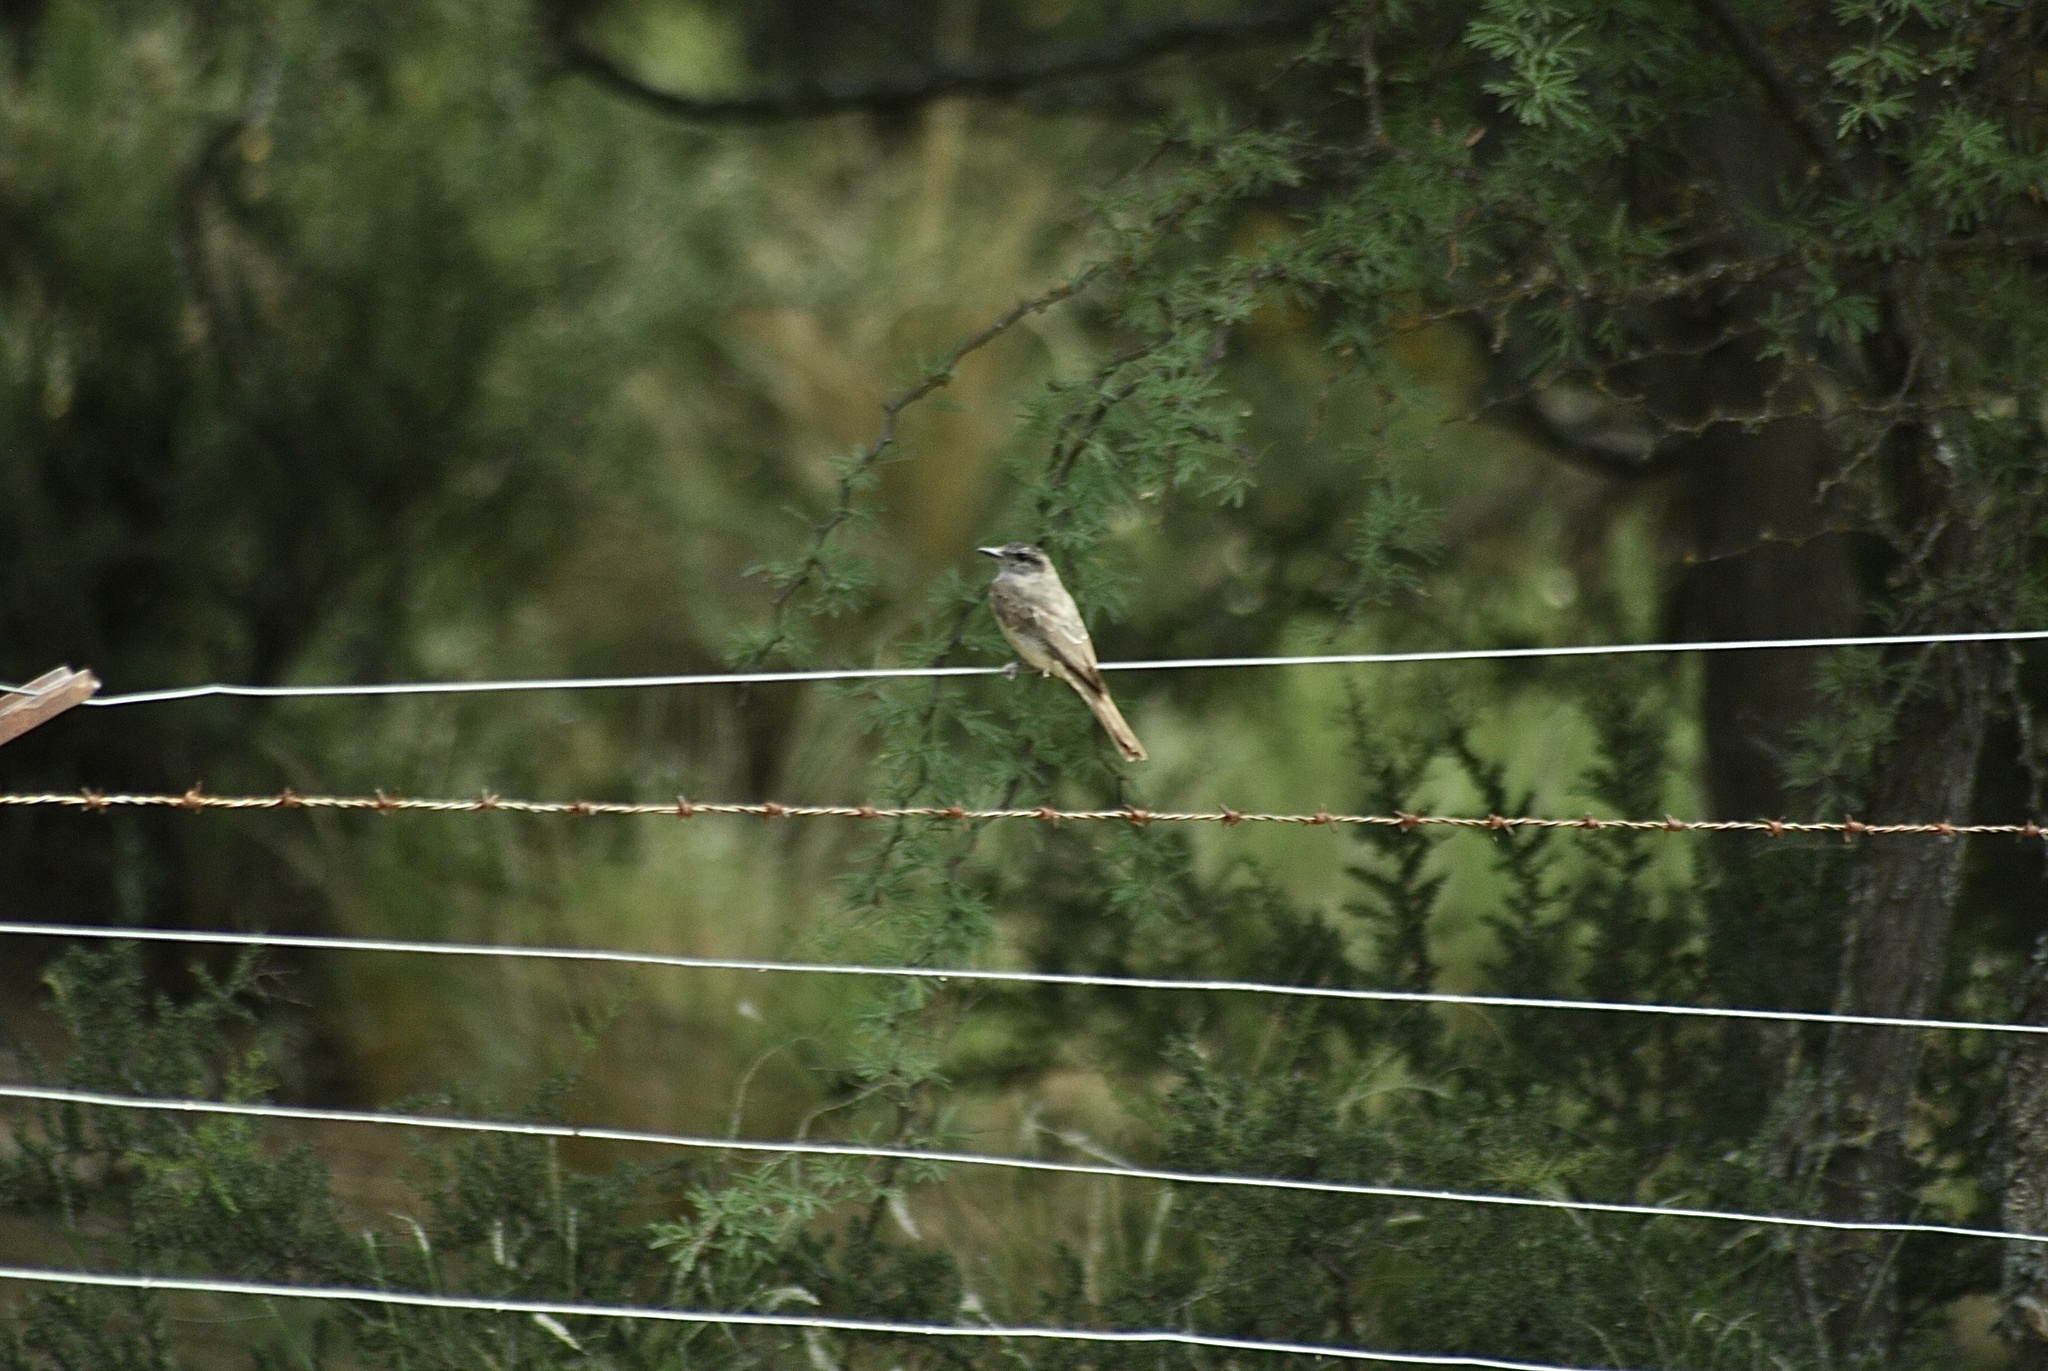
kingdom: Animalia
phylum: Chordata
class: Aves
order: Passeriformes
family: Tyrannidae
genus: Empidonomus
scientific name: Empidonomus aurantioatrocristatus
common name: Crowned slaty flycatcher
